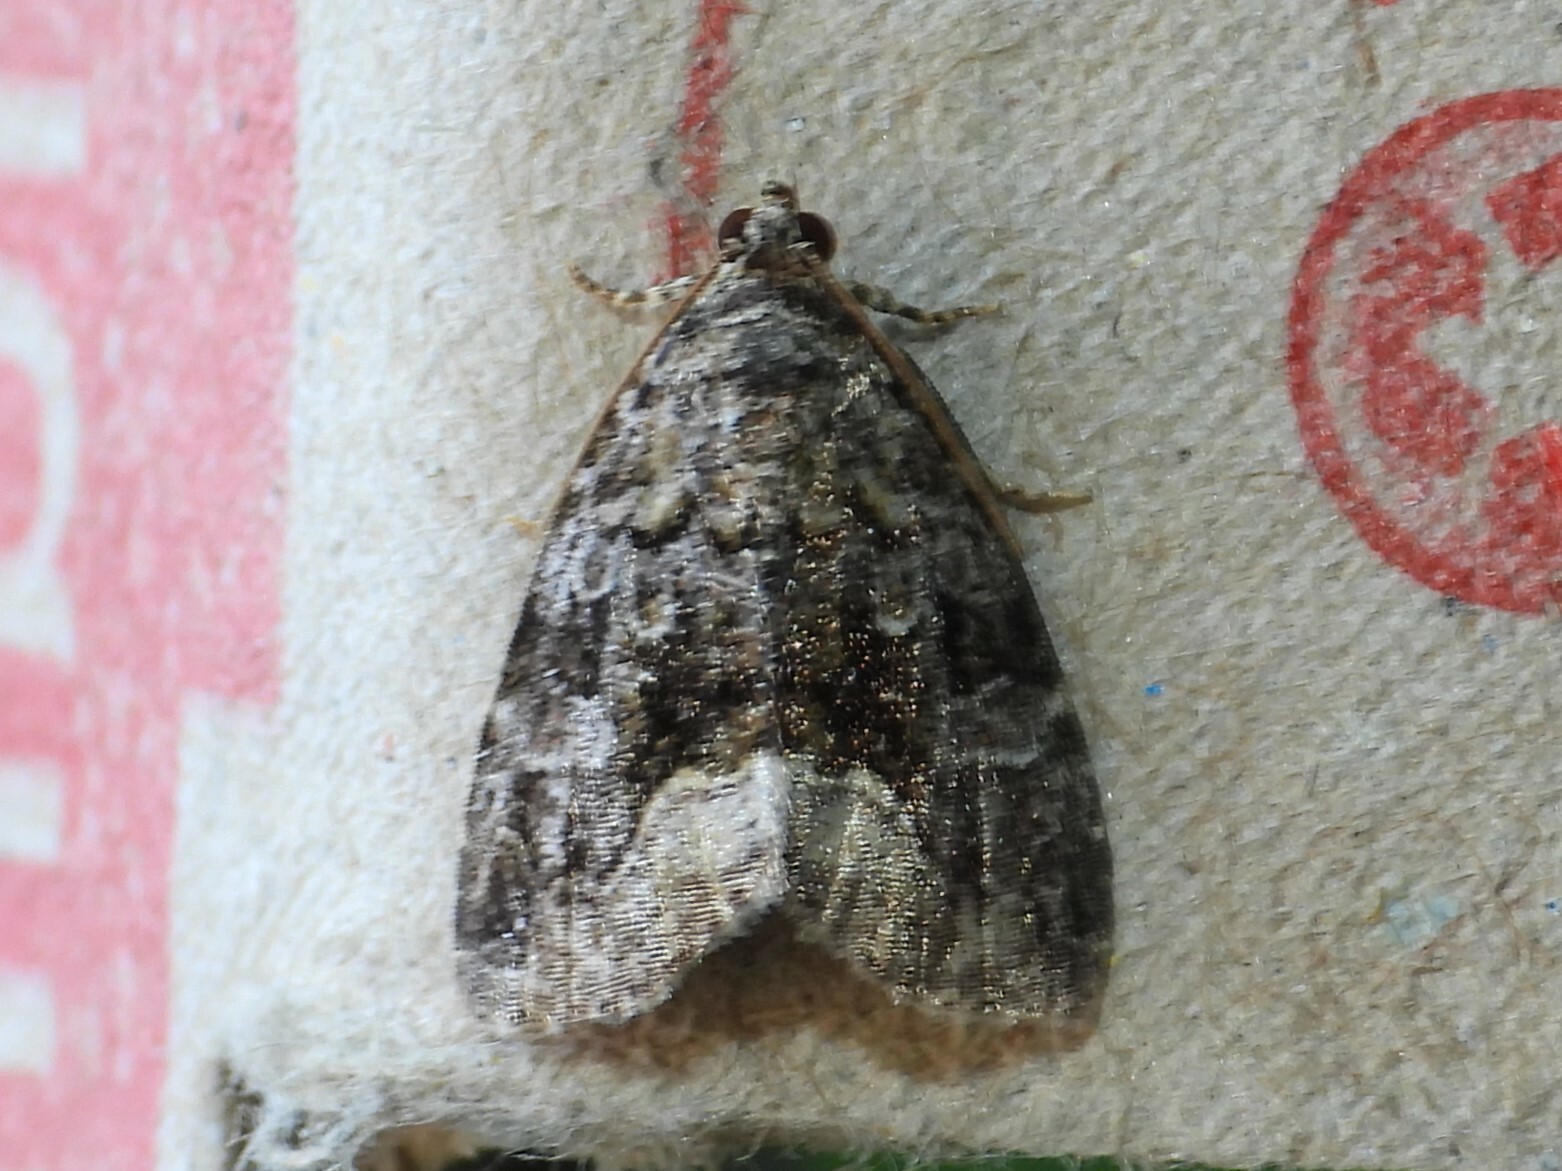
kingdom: Animalia
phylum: Arthropoda
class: Insecta
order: Lepidoptera
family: Noctuidae
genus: Protodeltote
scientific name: Protodeltote muscosula
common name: Large mossy glyph
